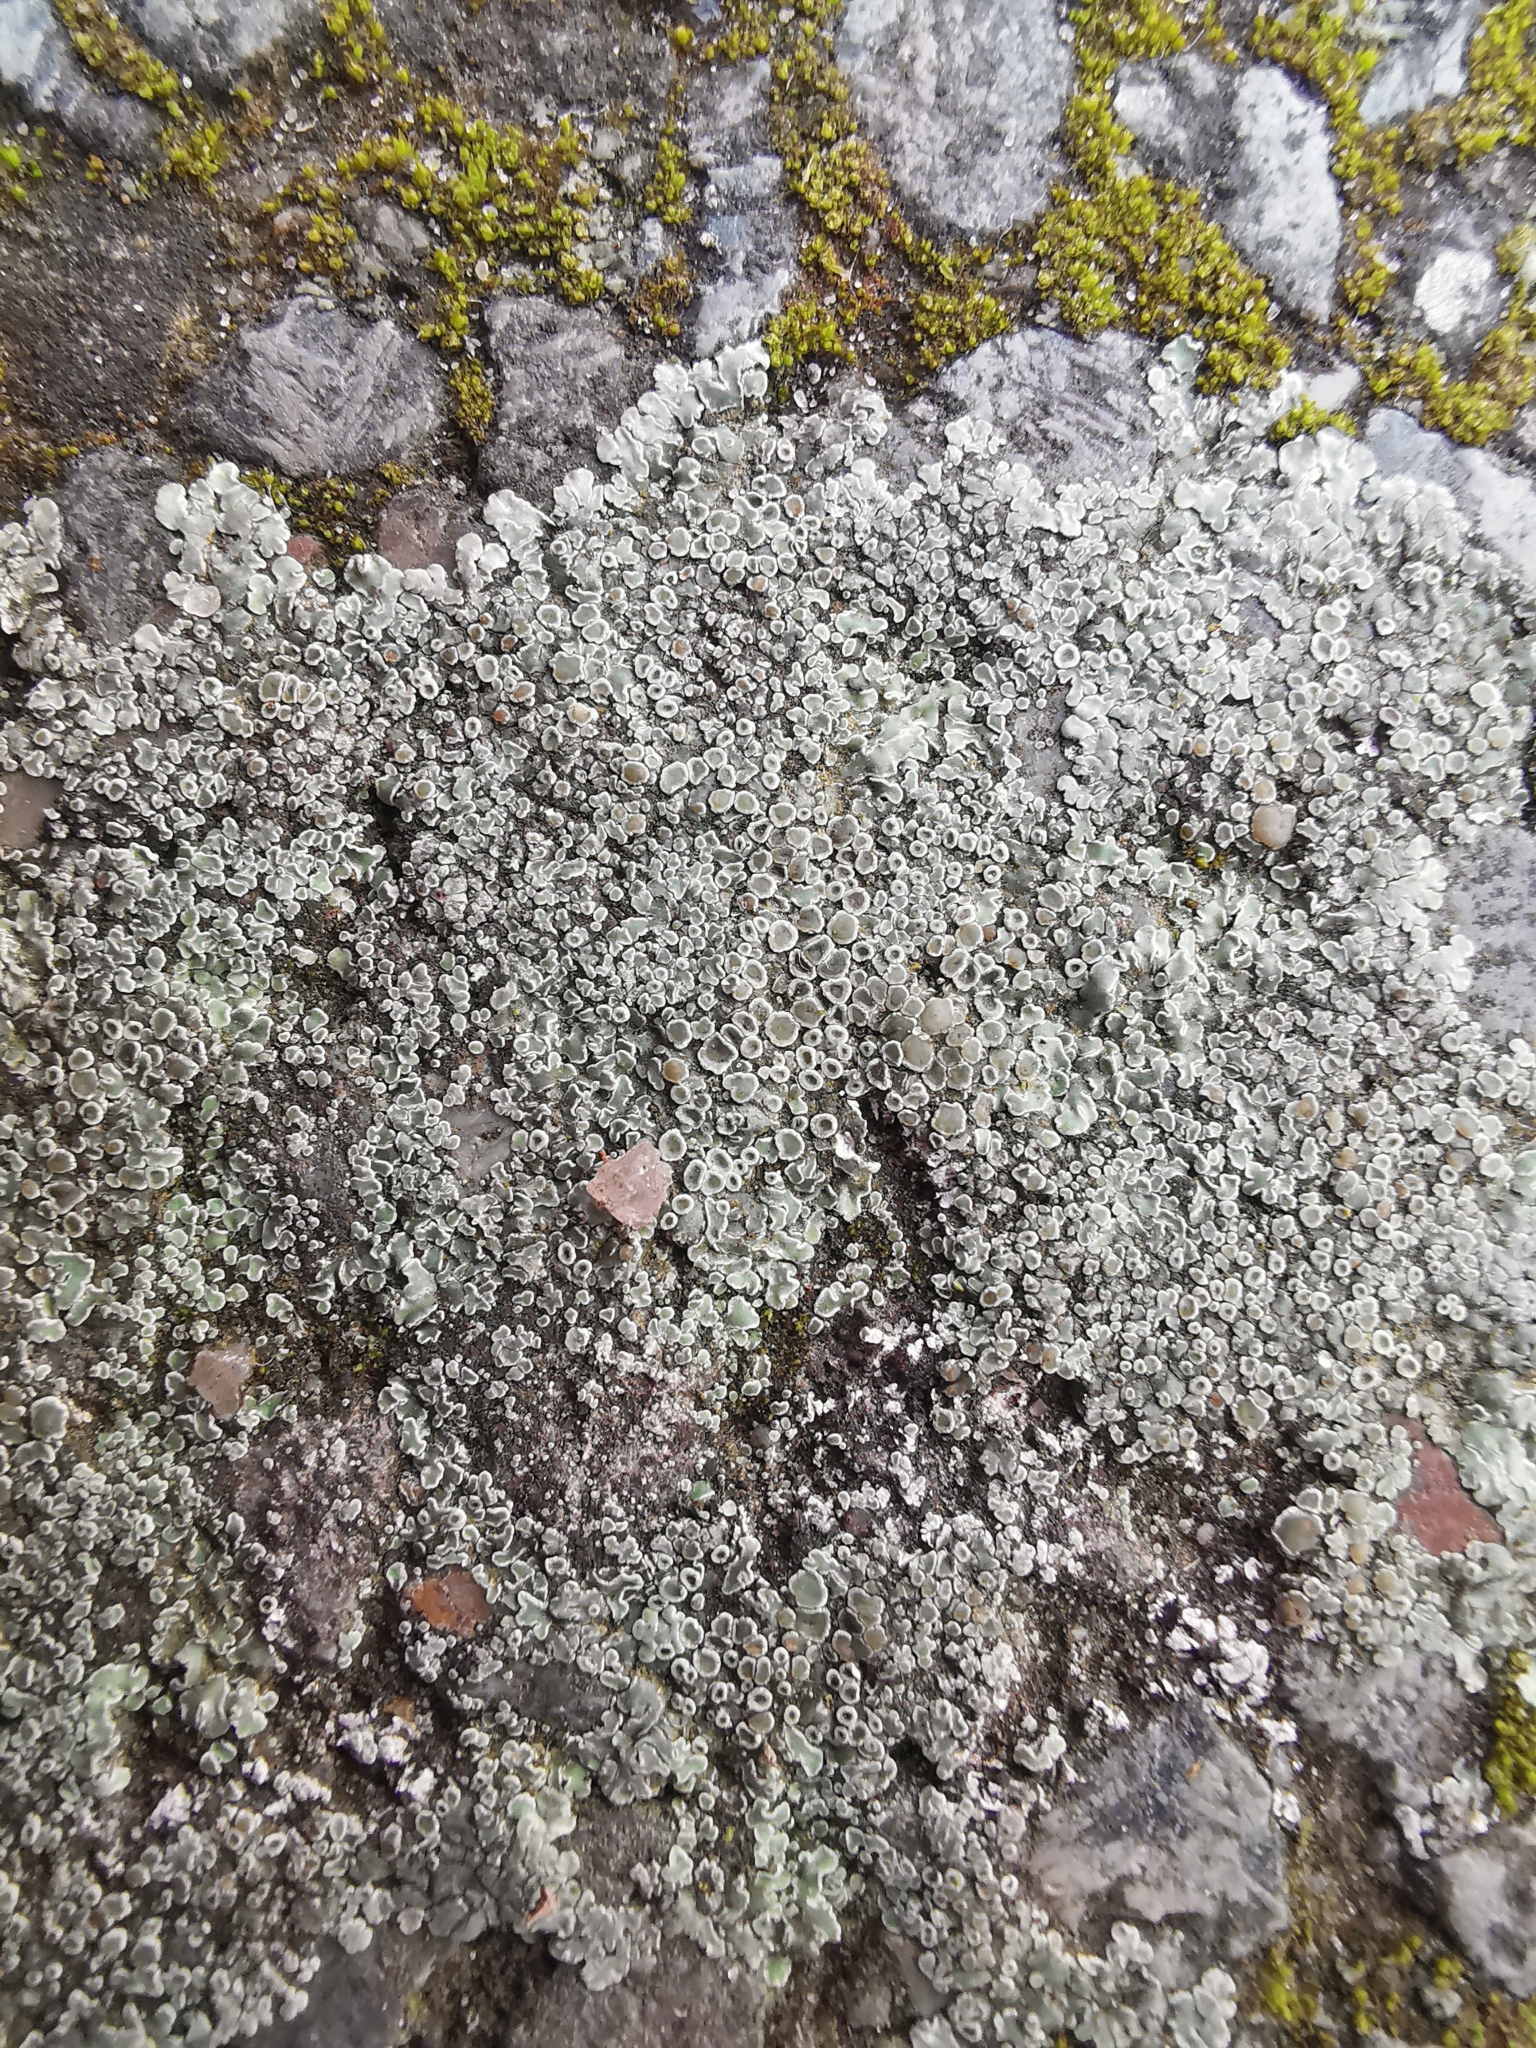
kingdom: Fungi
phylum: Ascomycota
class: Lecanoromycetes
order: Lecanorales
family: Lecanoraceae
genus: Protoparmeliopsis
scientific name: Protoparmeliopsis muralis
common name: Stonewall rim lichen
